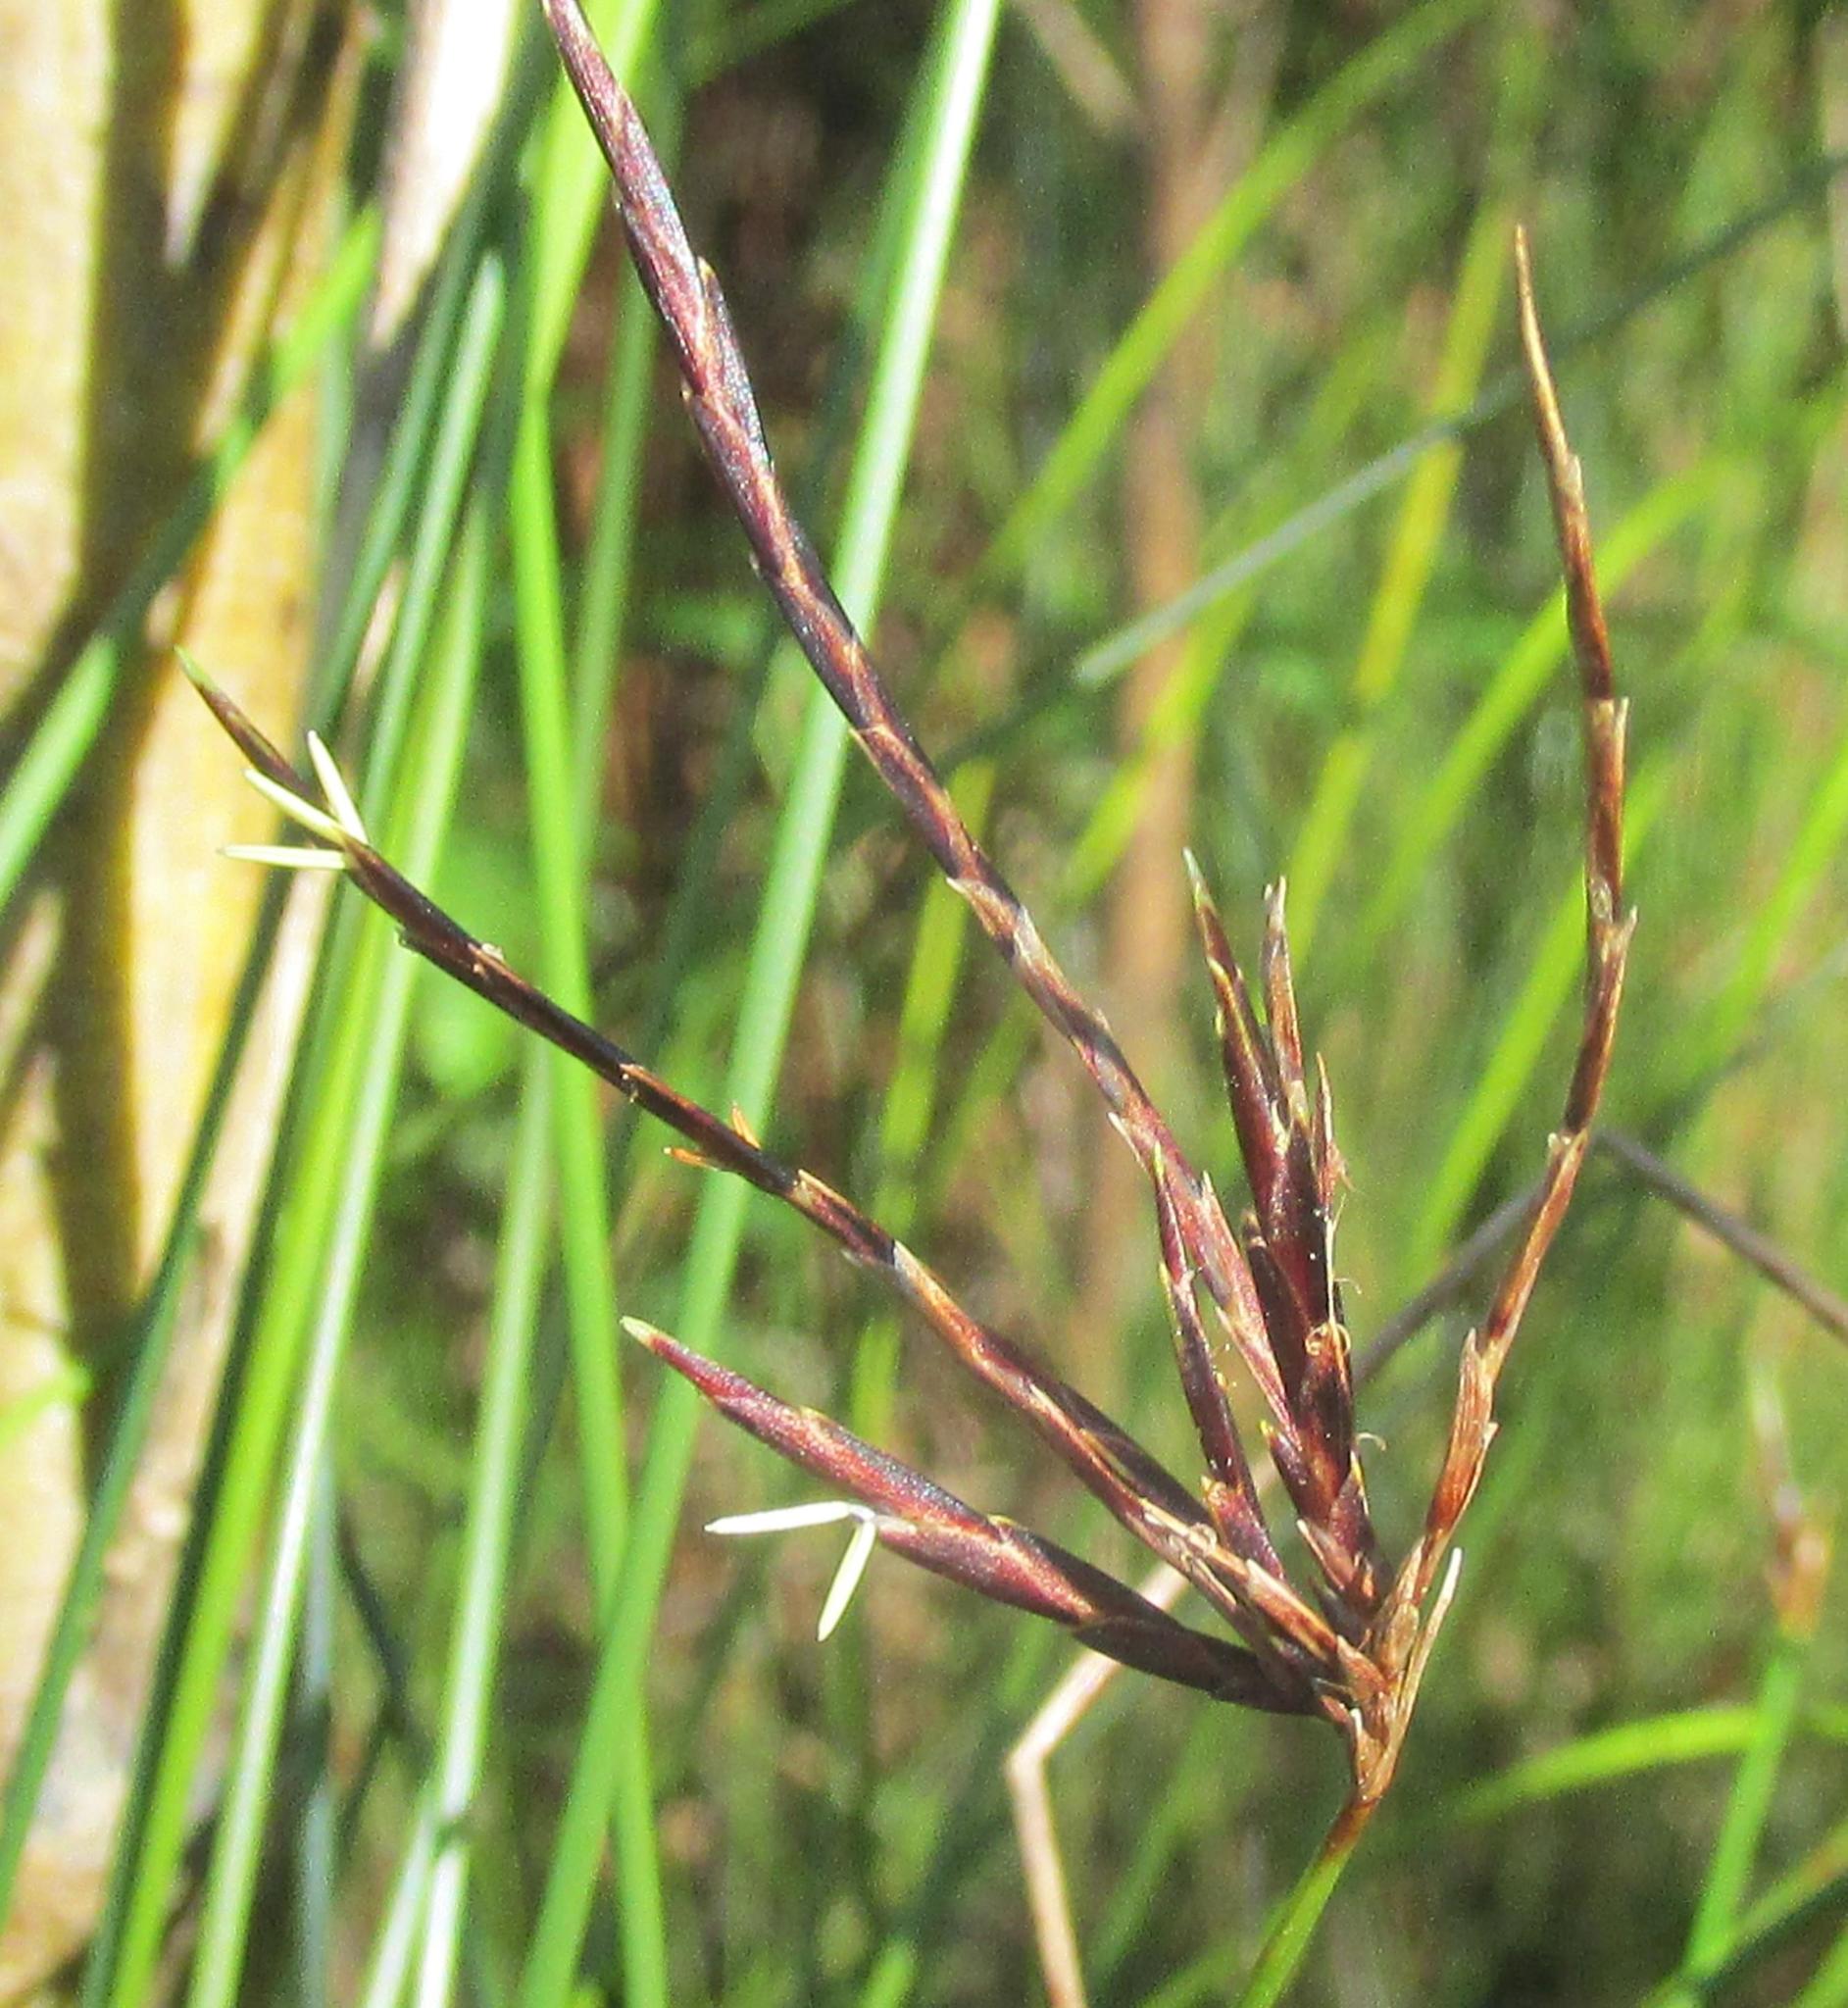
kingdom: Plantae
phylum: Tracheophyta
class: Liliopsida
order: Poales
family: Cyperaceae
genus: Ficinia
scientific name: Ficinia distans
